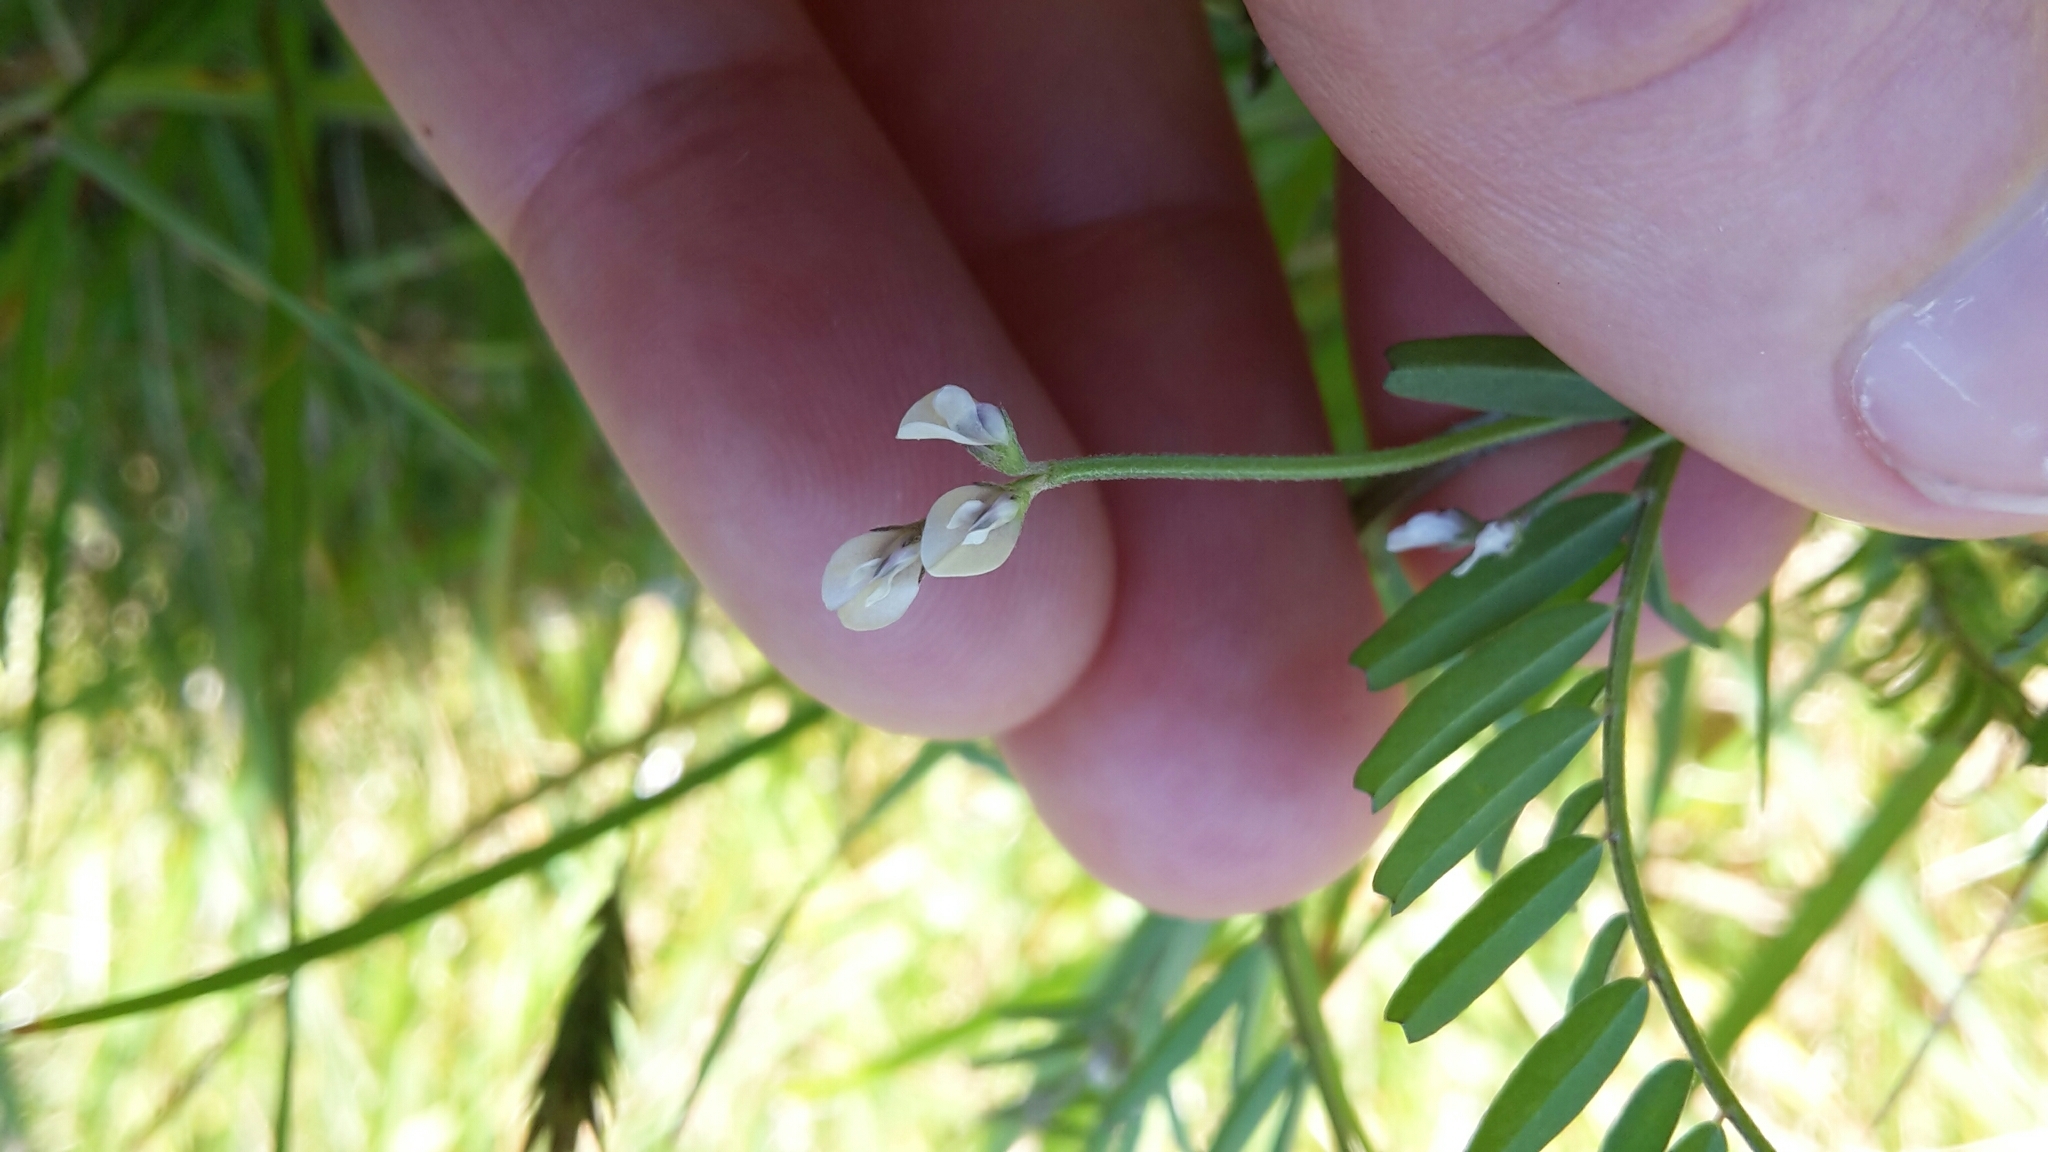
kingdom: Plantae
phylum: Tracheophyta
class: Magnoliopsida
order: Fabales
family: Fabaceae
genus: Vicia
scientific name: Vicia hirsuta
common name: Tiny vetch
